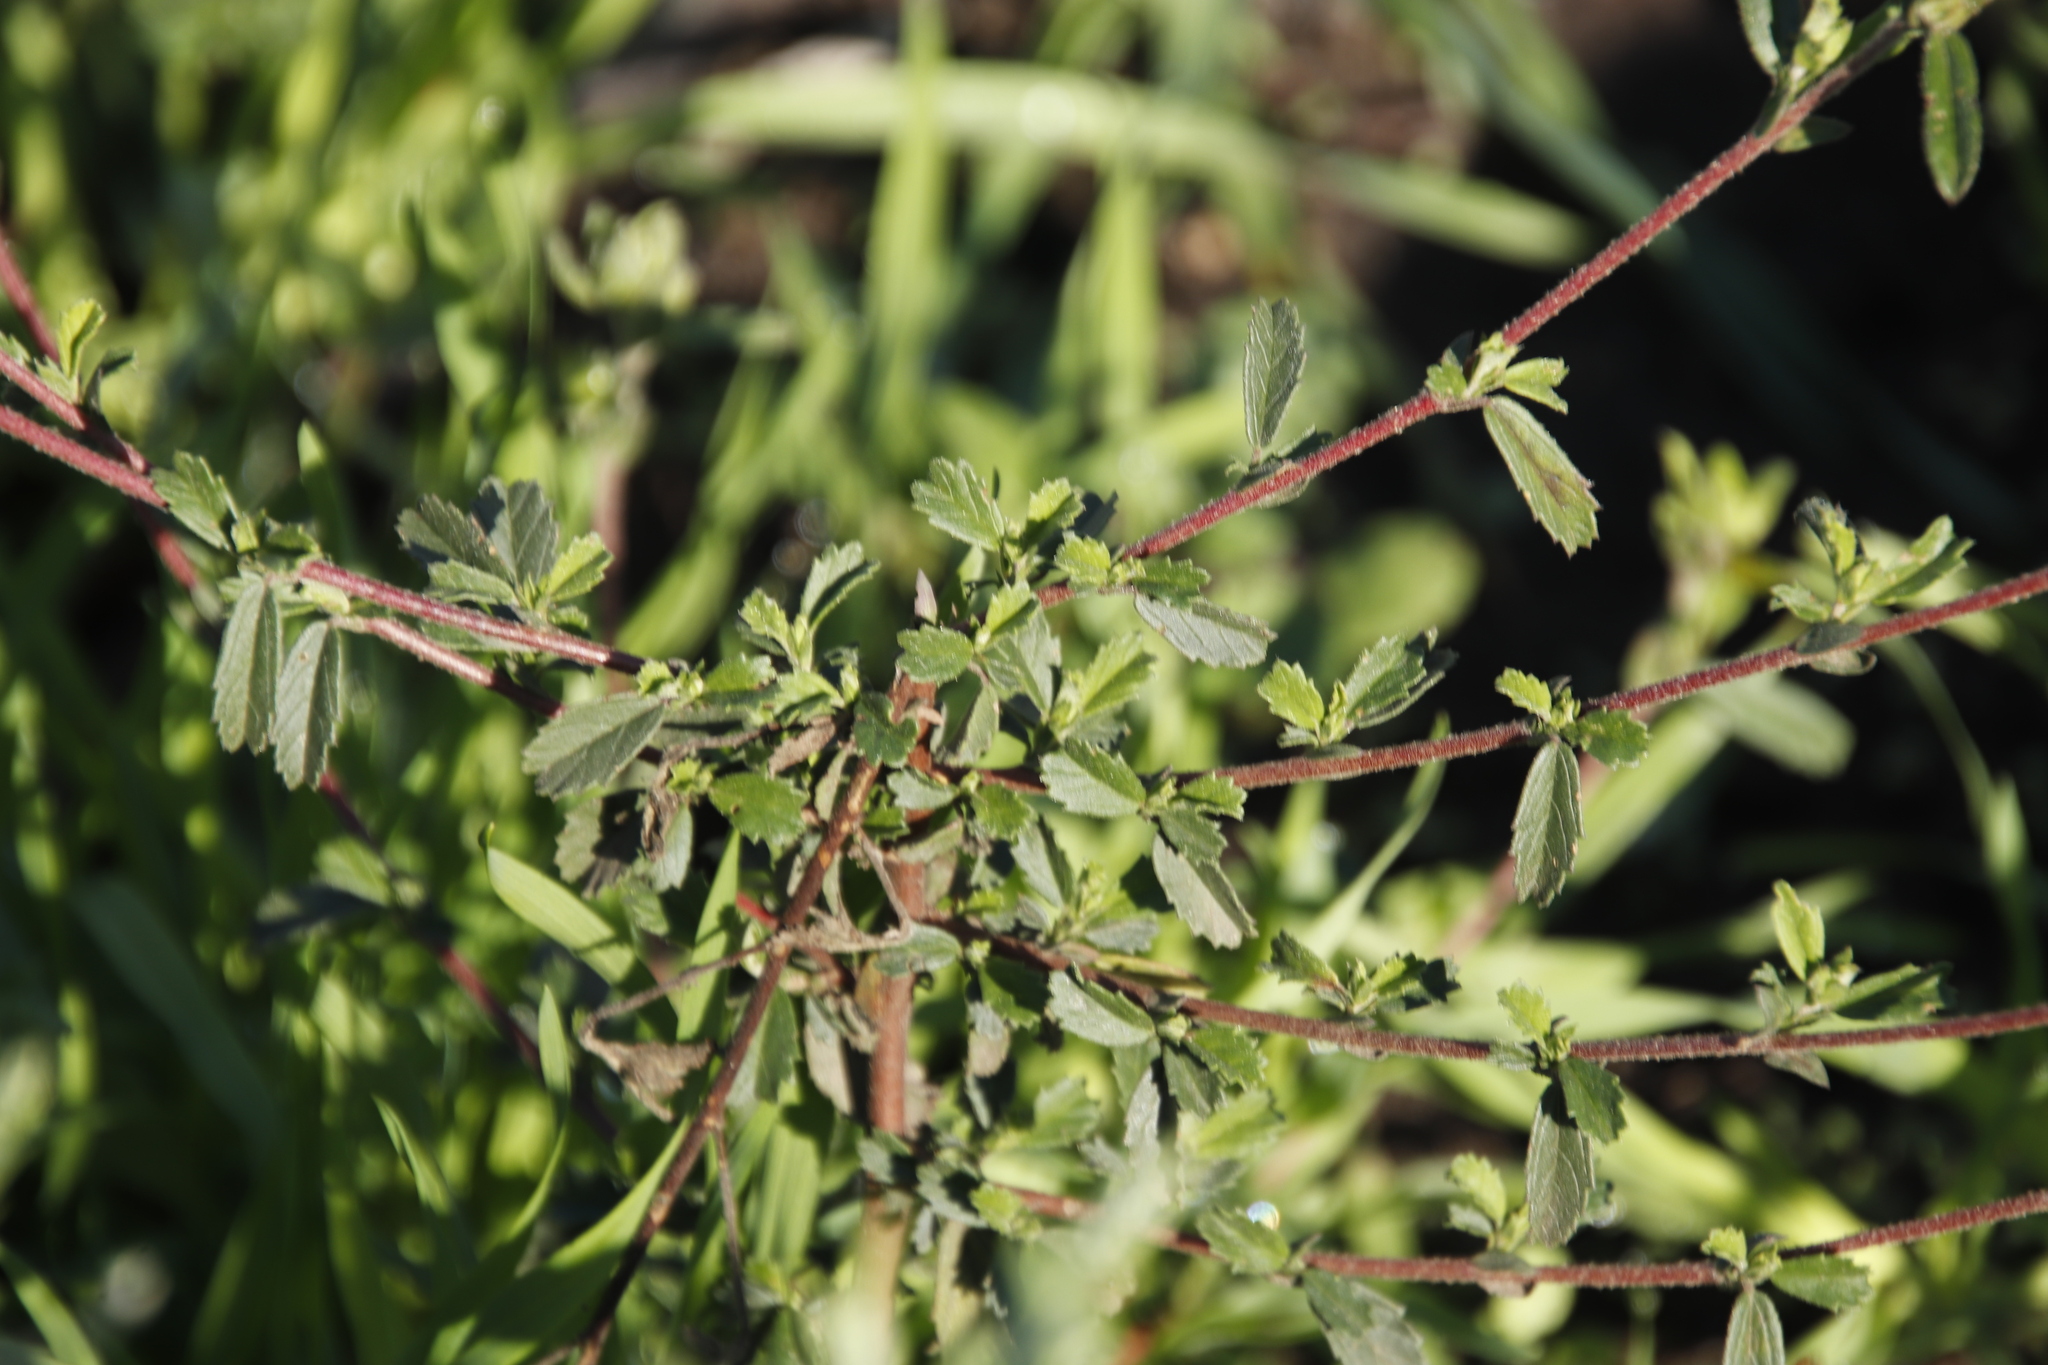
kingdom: Plantae
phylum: Tracheophyta
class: Magnoliopsida
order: Malvales
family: Malvaceae
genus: Hermannia
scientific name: Hermannia hyssopifolia
